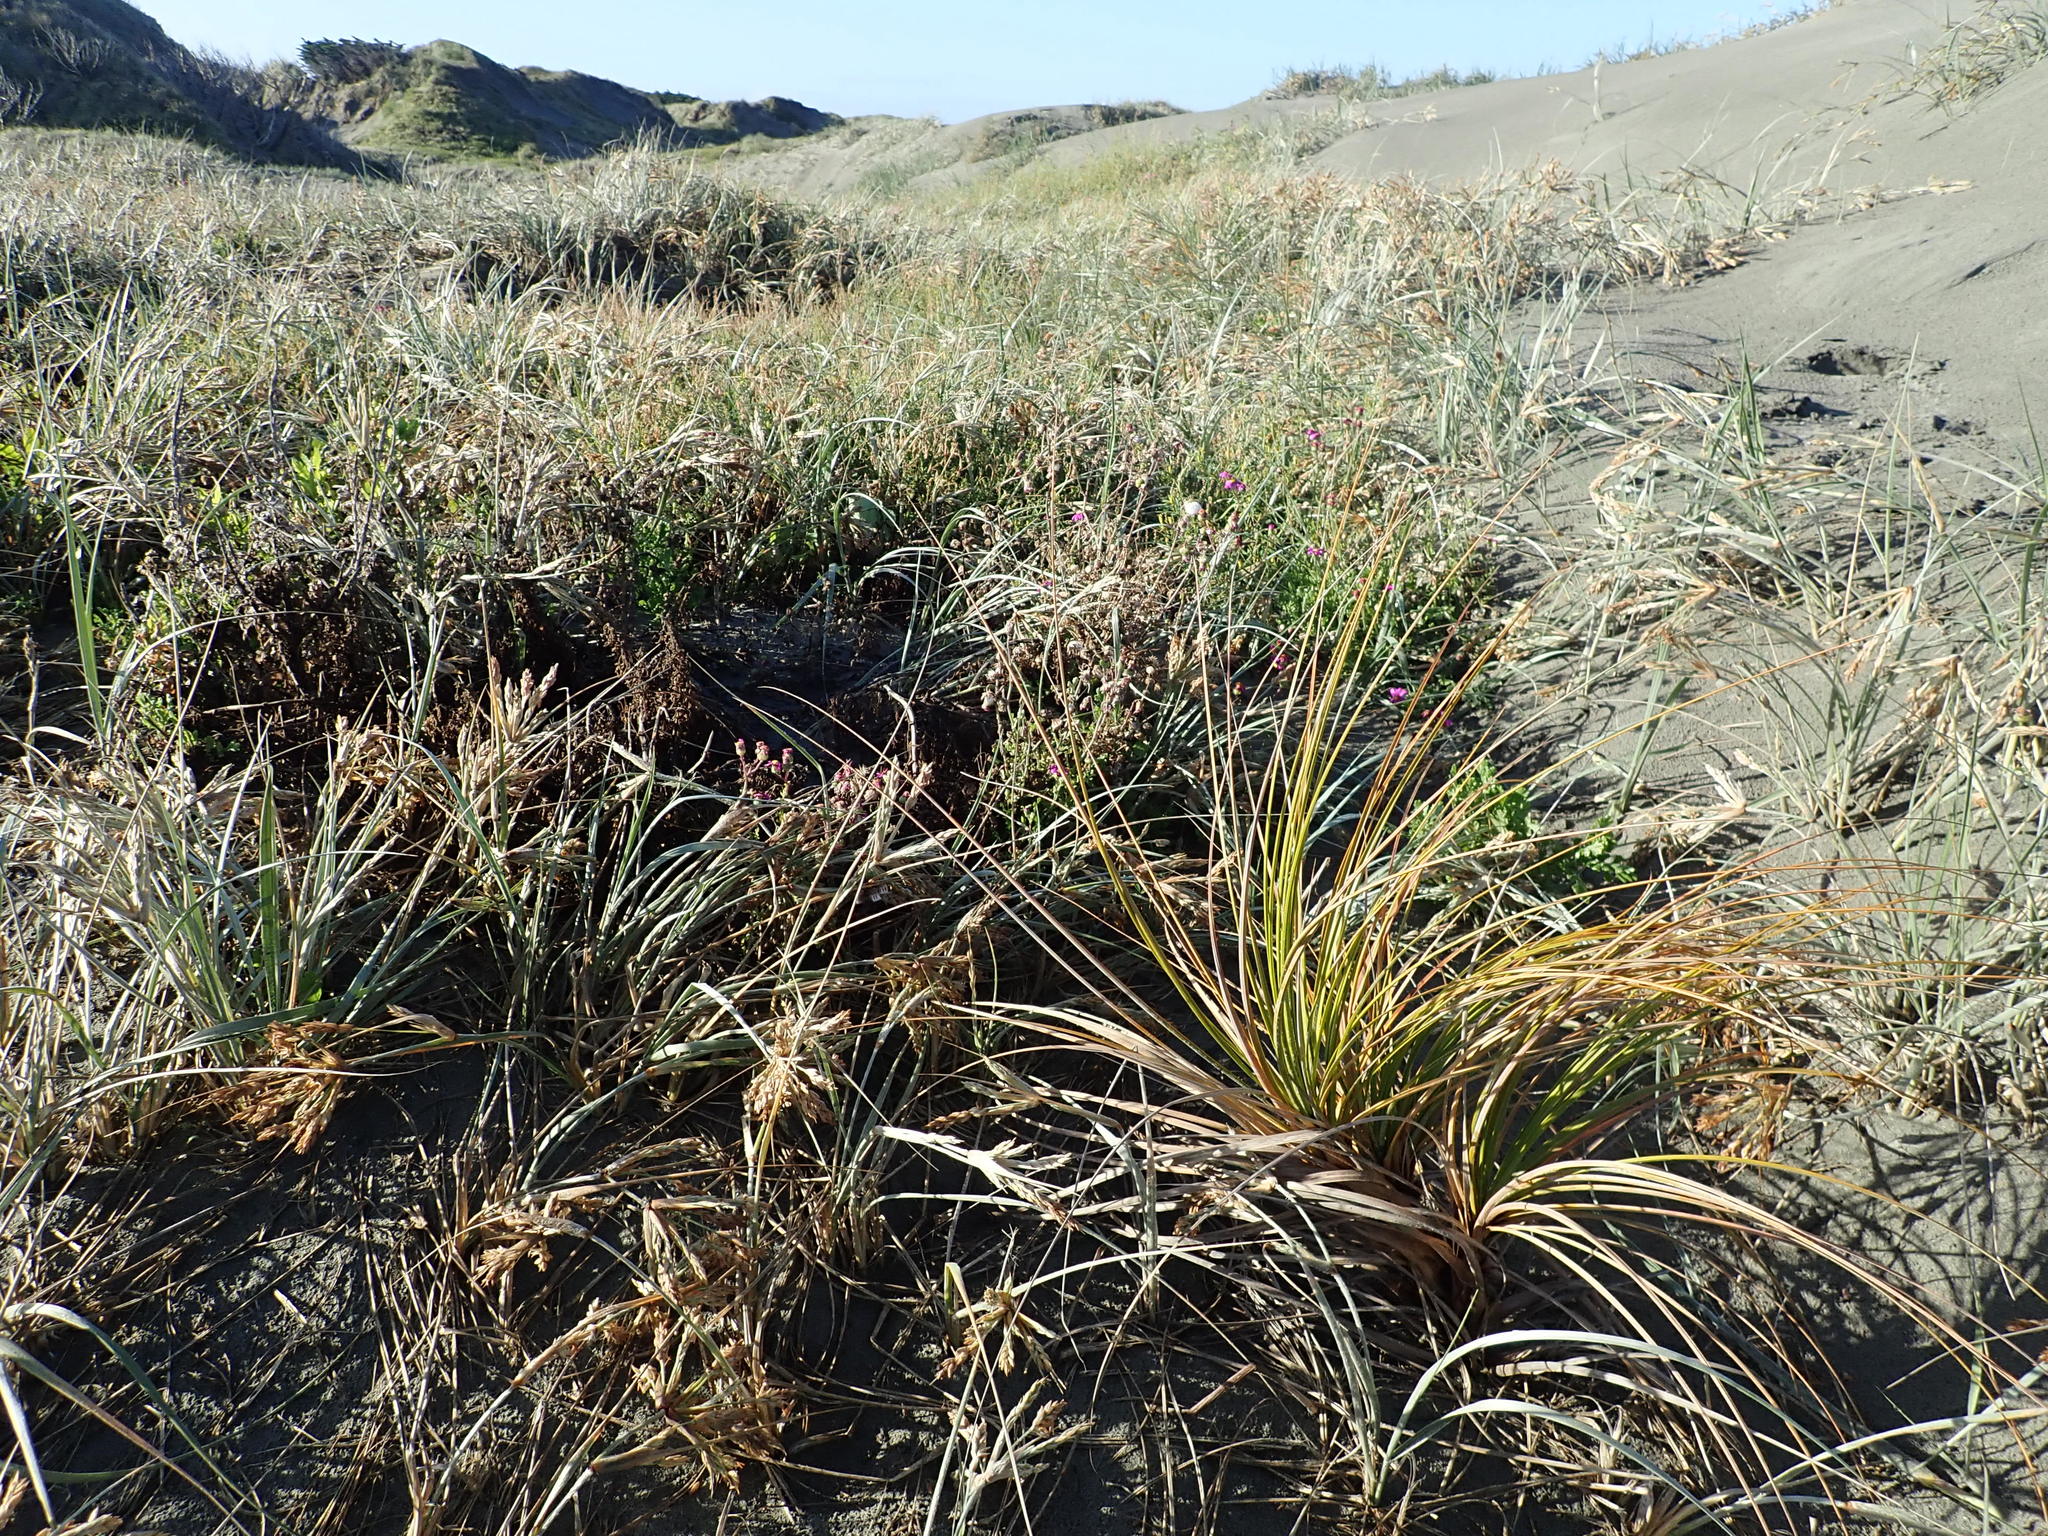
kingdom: Plantae
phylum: Tracheophyta
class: Liliopsida
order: Poales
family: Cyperaceae
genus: Ficinia
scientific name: Ficinia spiralis
